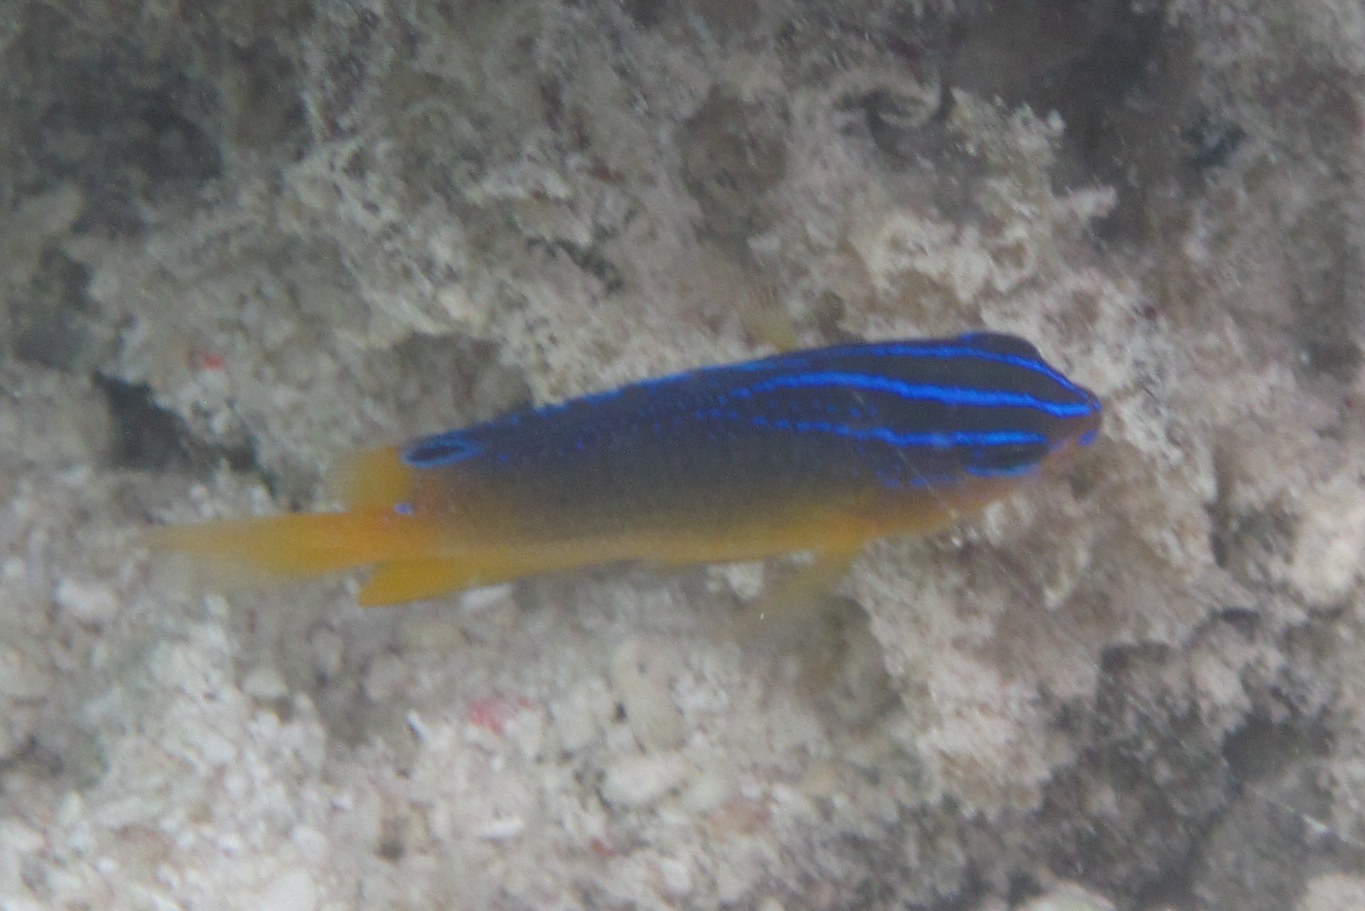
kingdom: Animalia
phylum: Chordata
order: Perciformes
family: Pomacentridae
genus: Pomacentrus
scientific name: Pomacentrus grammorhynchus
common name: Blue-spot damsel
